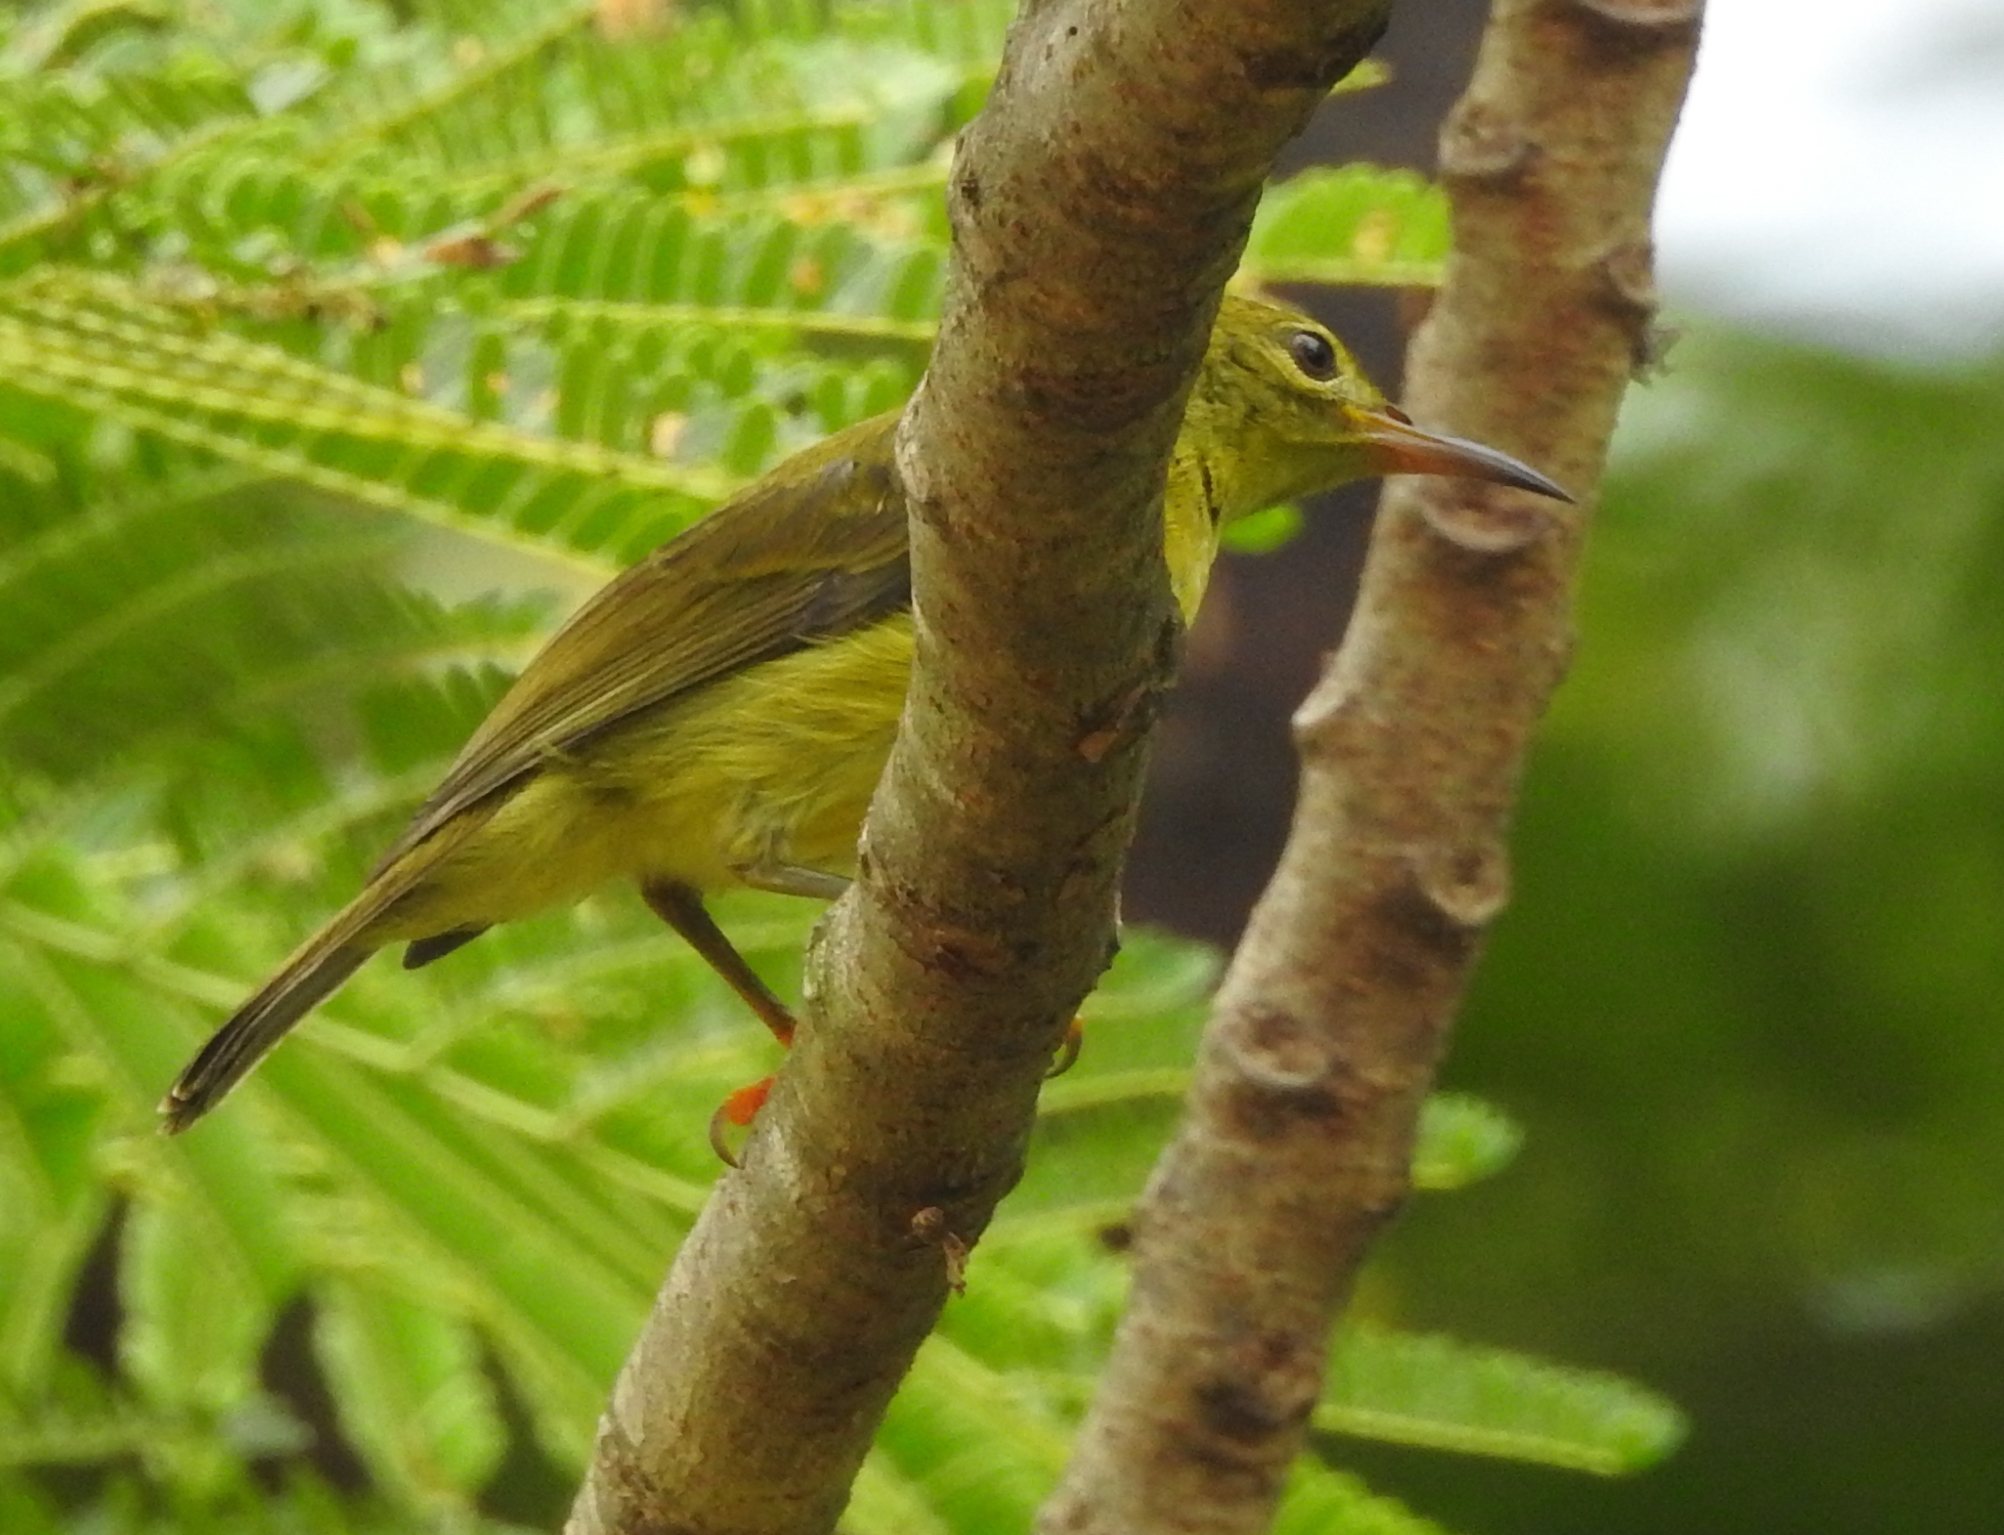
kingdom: Animalia
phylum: Chordata
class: Aves
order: Passeriformes
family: Nectariniidae
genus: Anthreptes
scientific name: Anthreptes malacensis
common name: Brown-throated sunbird
